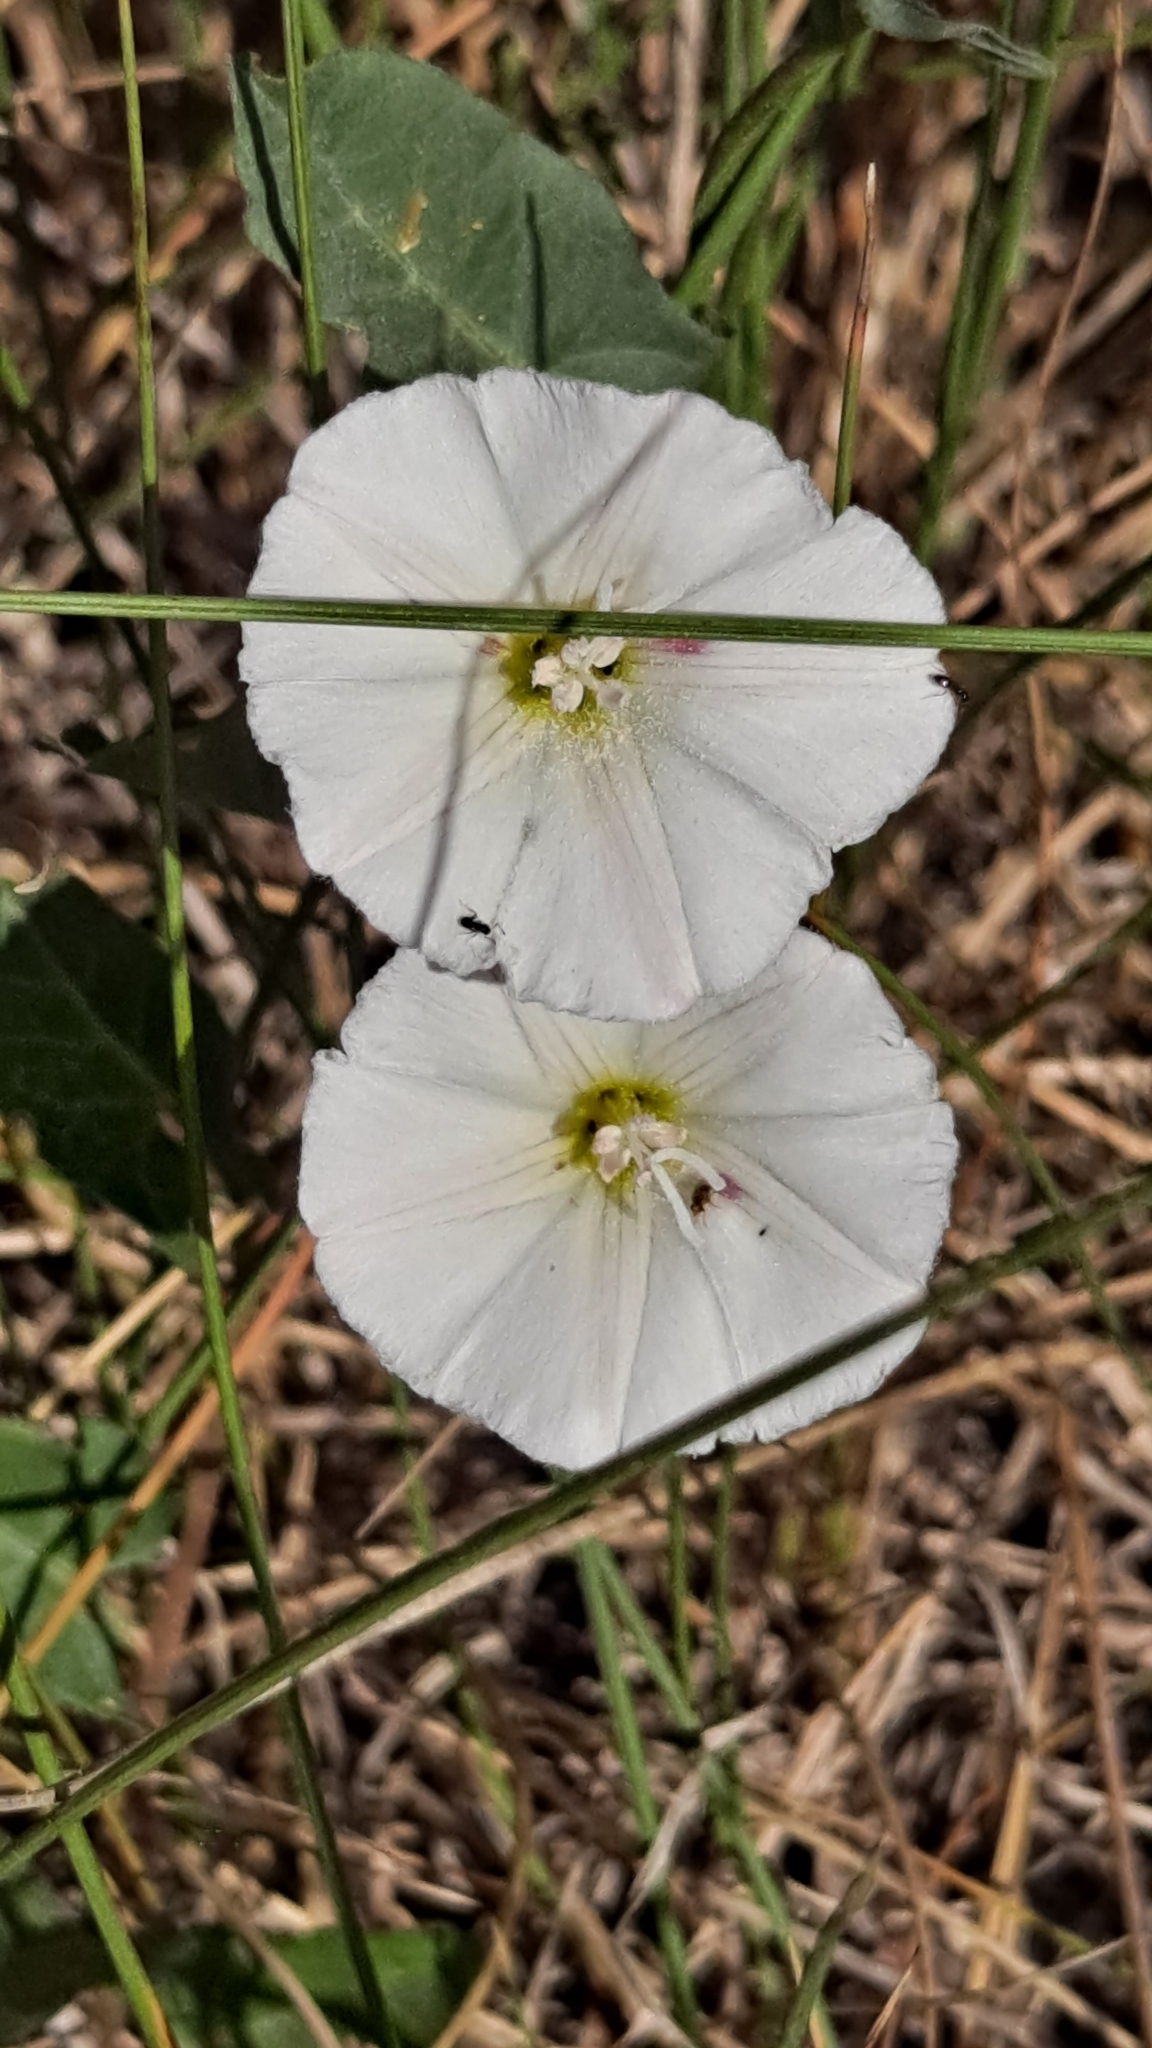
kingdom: Plantae
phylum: Tracheophyta
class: Magnoliopsida
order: Solanales
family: Convolvulaceae
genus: Convolvulus
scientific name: Convolvulus arvensis
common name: Field bindweed
